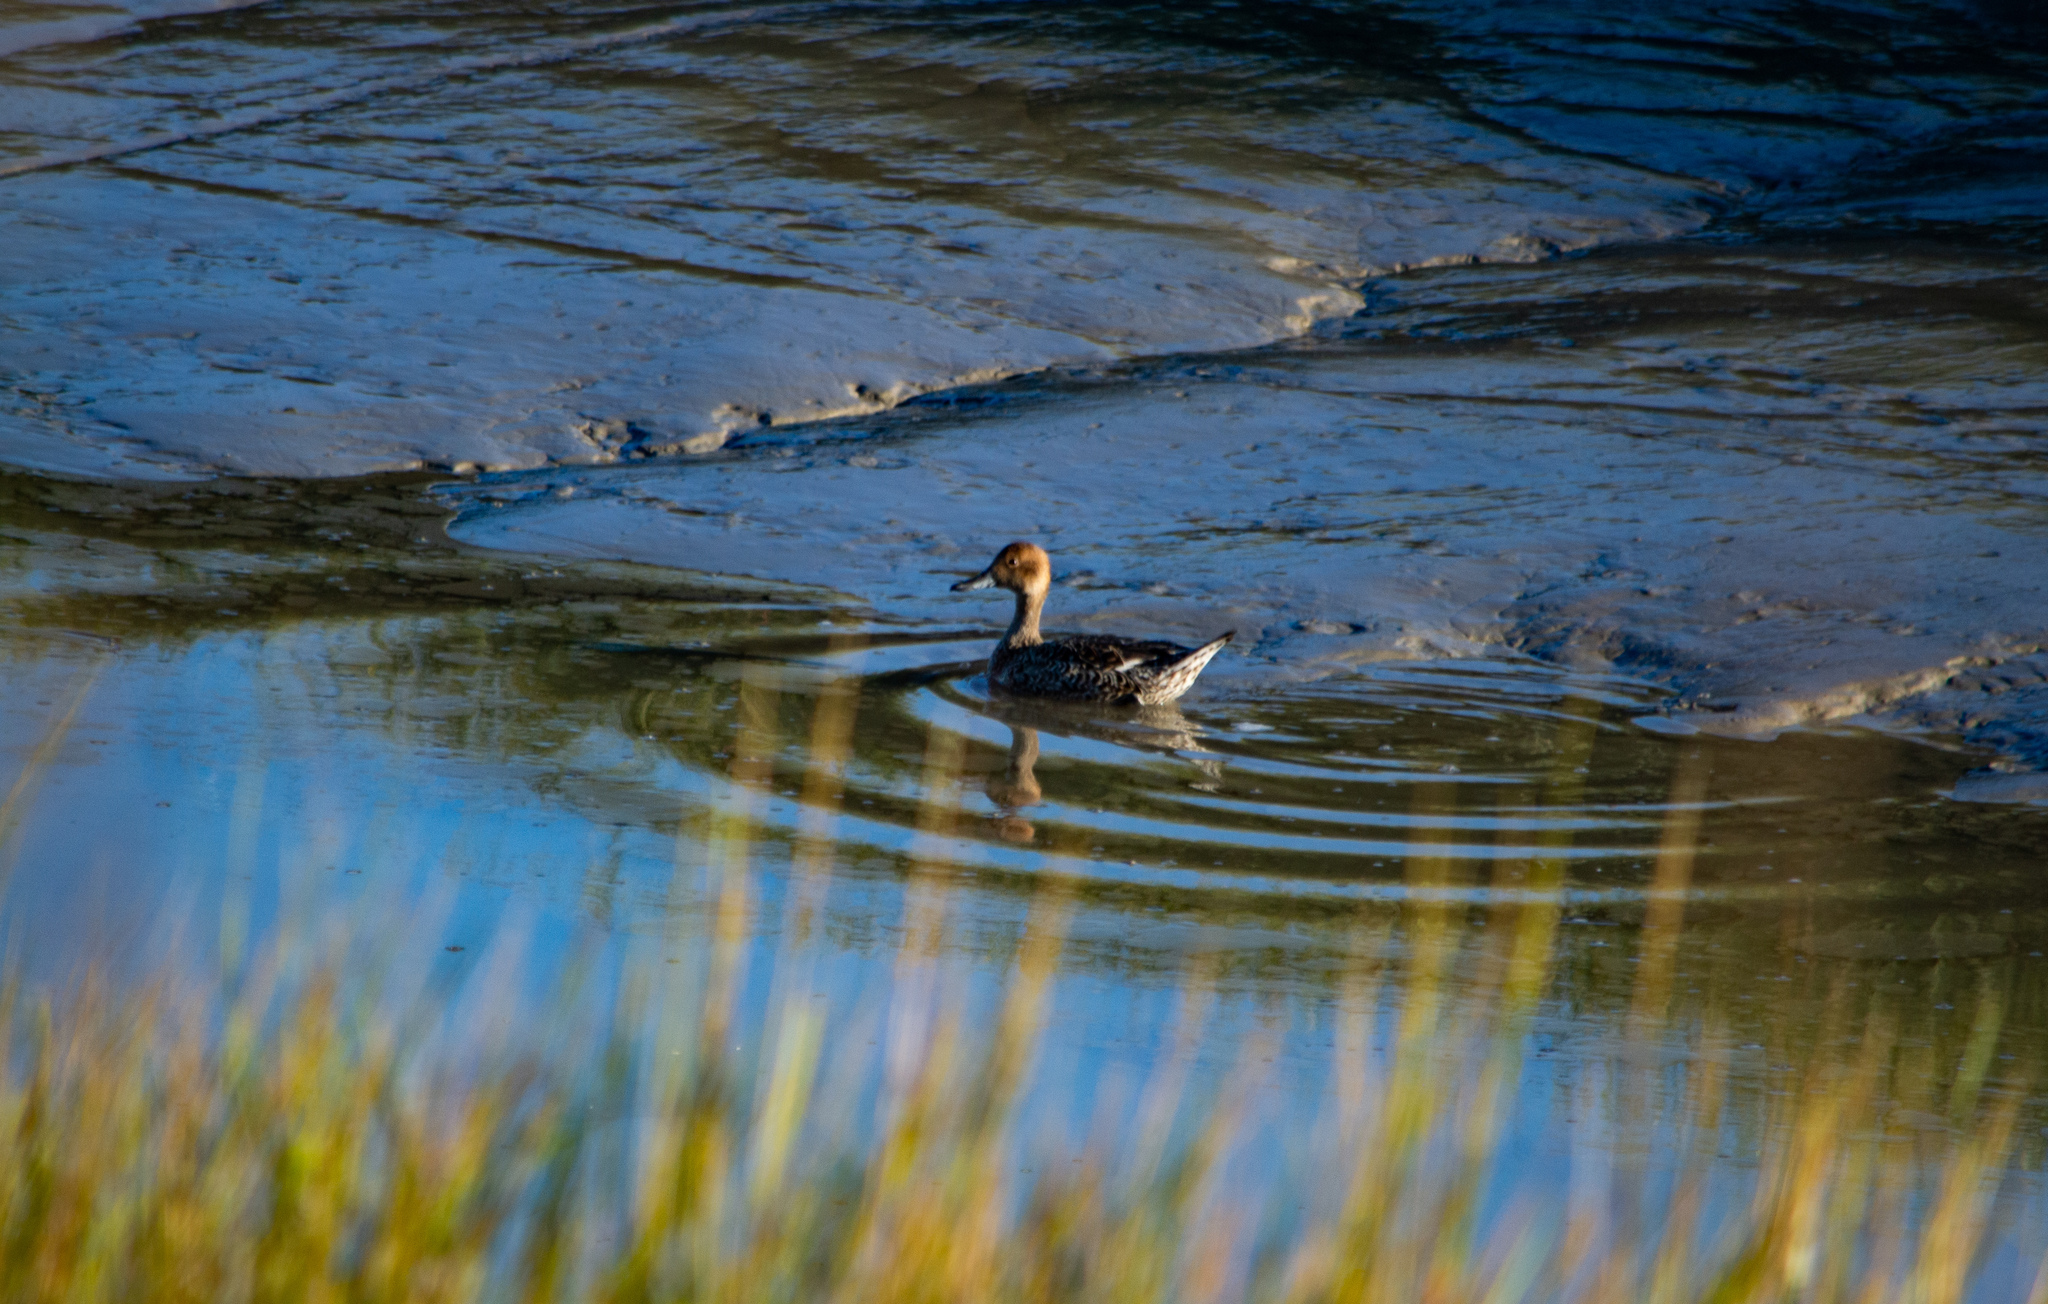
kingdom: Animalia
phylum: Chordata
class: Aves
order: Anseriformes
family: Anatidae
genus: Anas
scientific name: Anas acuta
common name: Northern pintail
